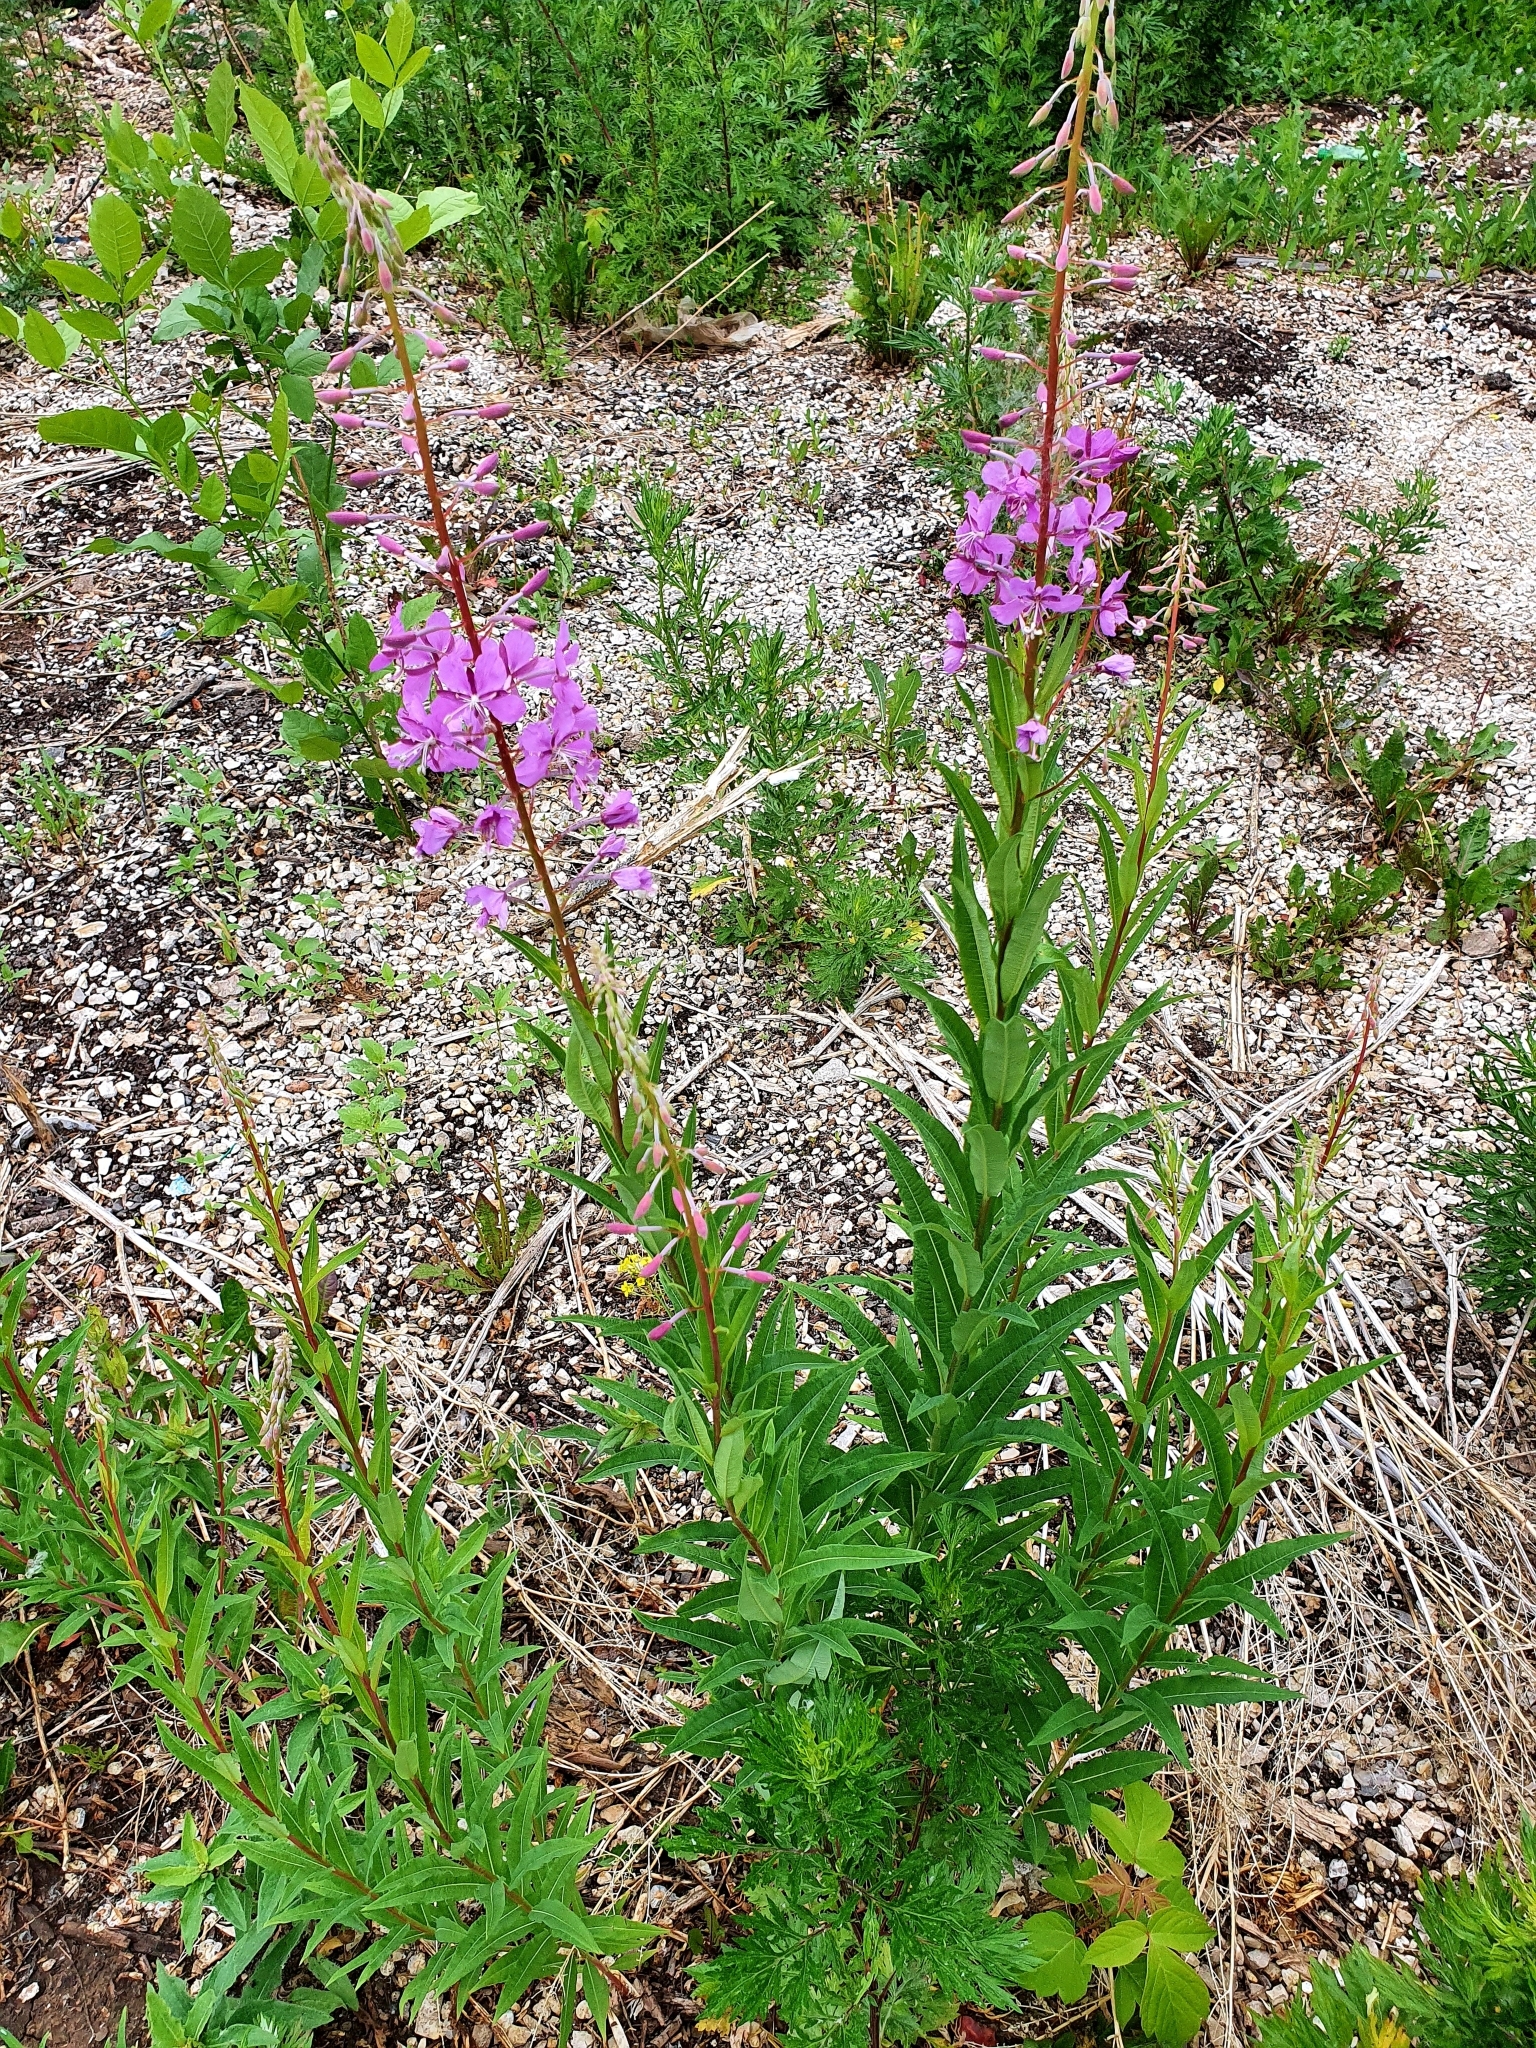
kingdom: Plantae
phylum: Tracheophyta
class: Magnoliopsida
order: Myrtales
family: Onagraceae
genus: Chamaenerion
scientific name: Chamaenerion angustifolium
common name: Fireweed
